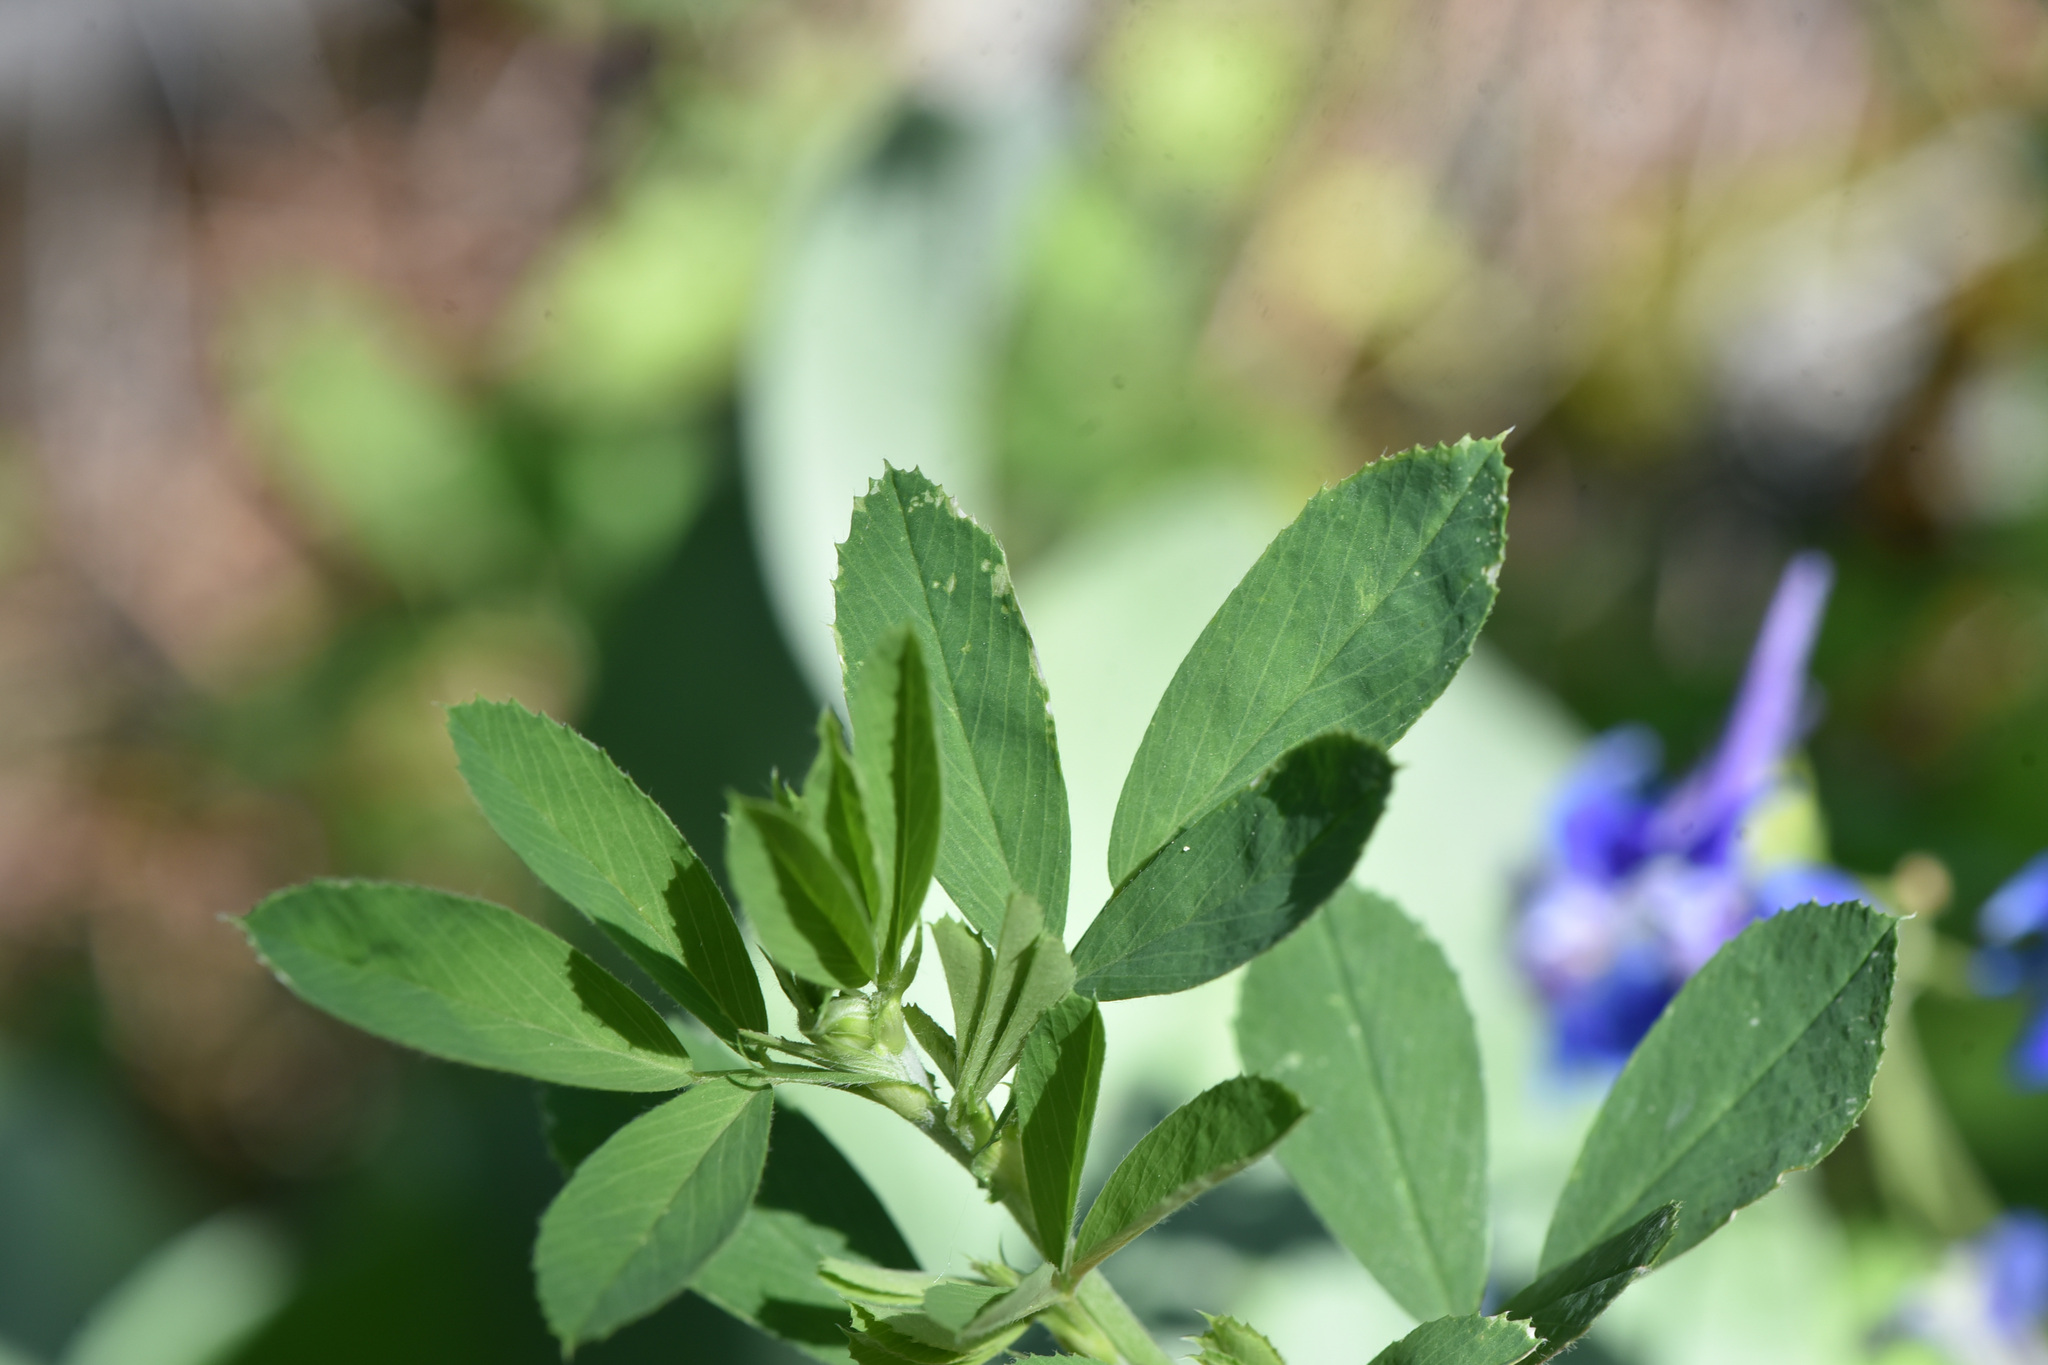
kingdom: Plantae
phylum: Tracheophyta
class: Magnoliopsida
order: Fabales
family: Fabaceae
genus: Medicago
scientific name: Medicago sativa
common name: Alfalfa
